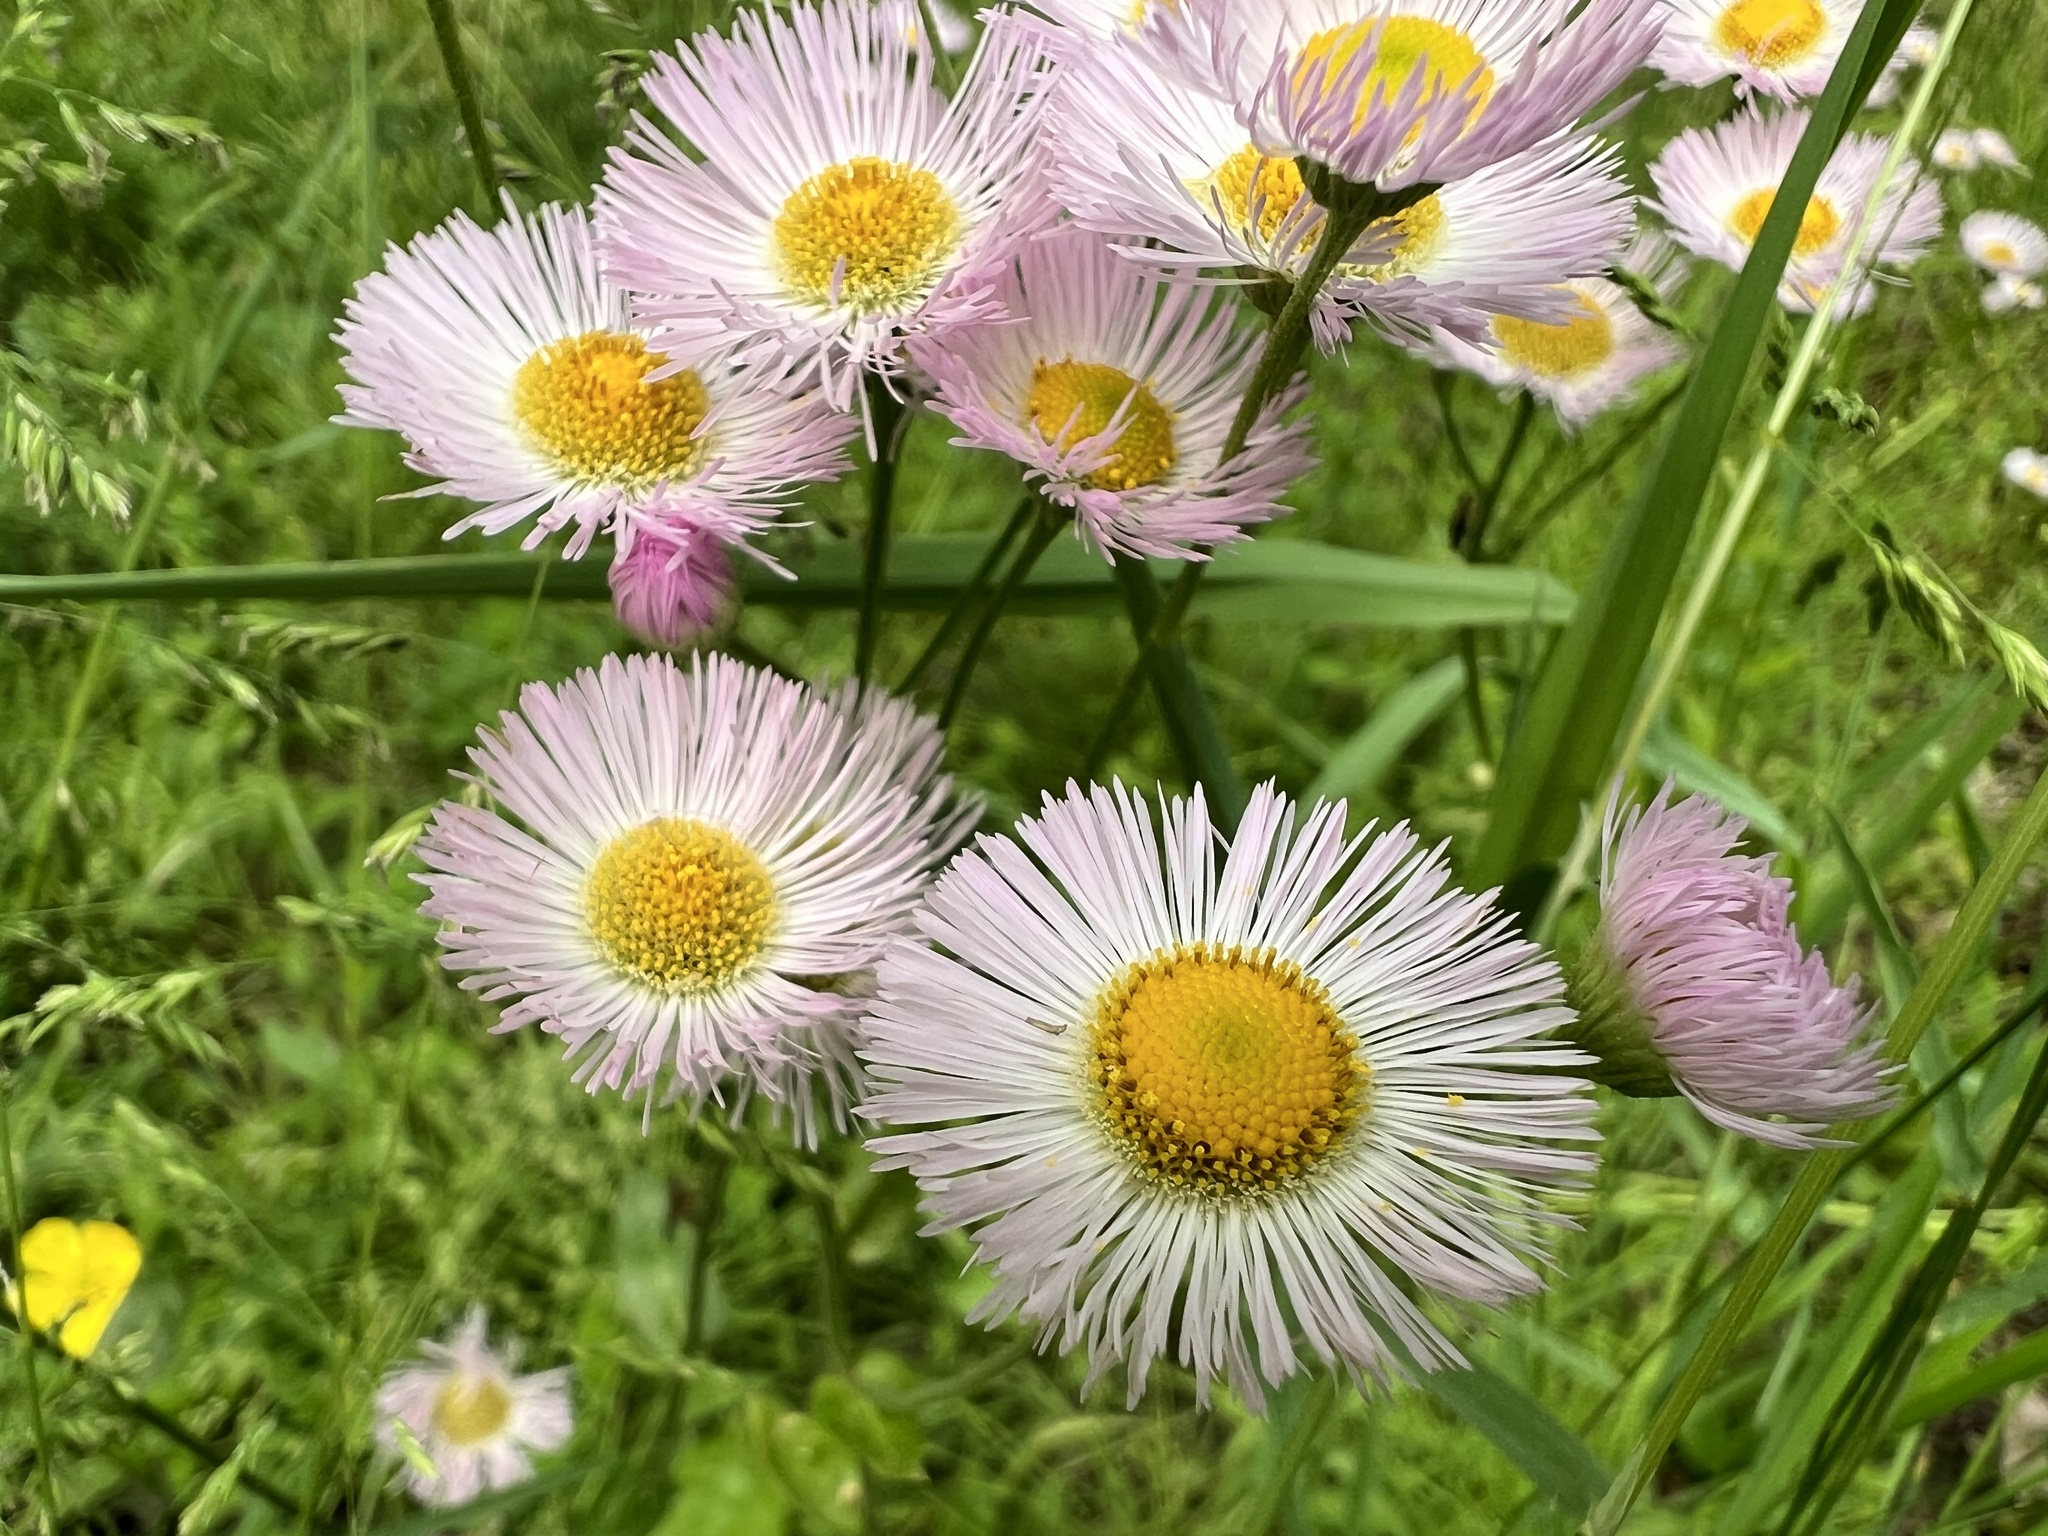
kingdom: Plantae
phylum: Tracheophyta
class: Magnoliopsida
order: Asterales
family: Asteraceae
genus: Erigeron
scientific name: Erigeron philadelphicus
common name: Robin's-plantain
